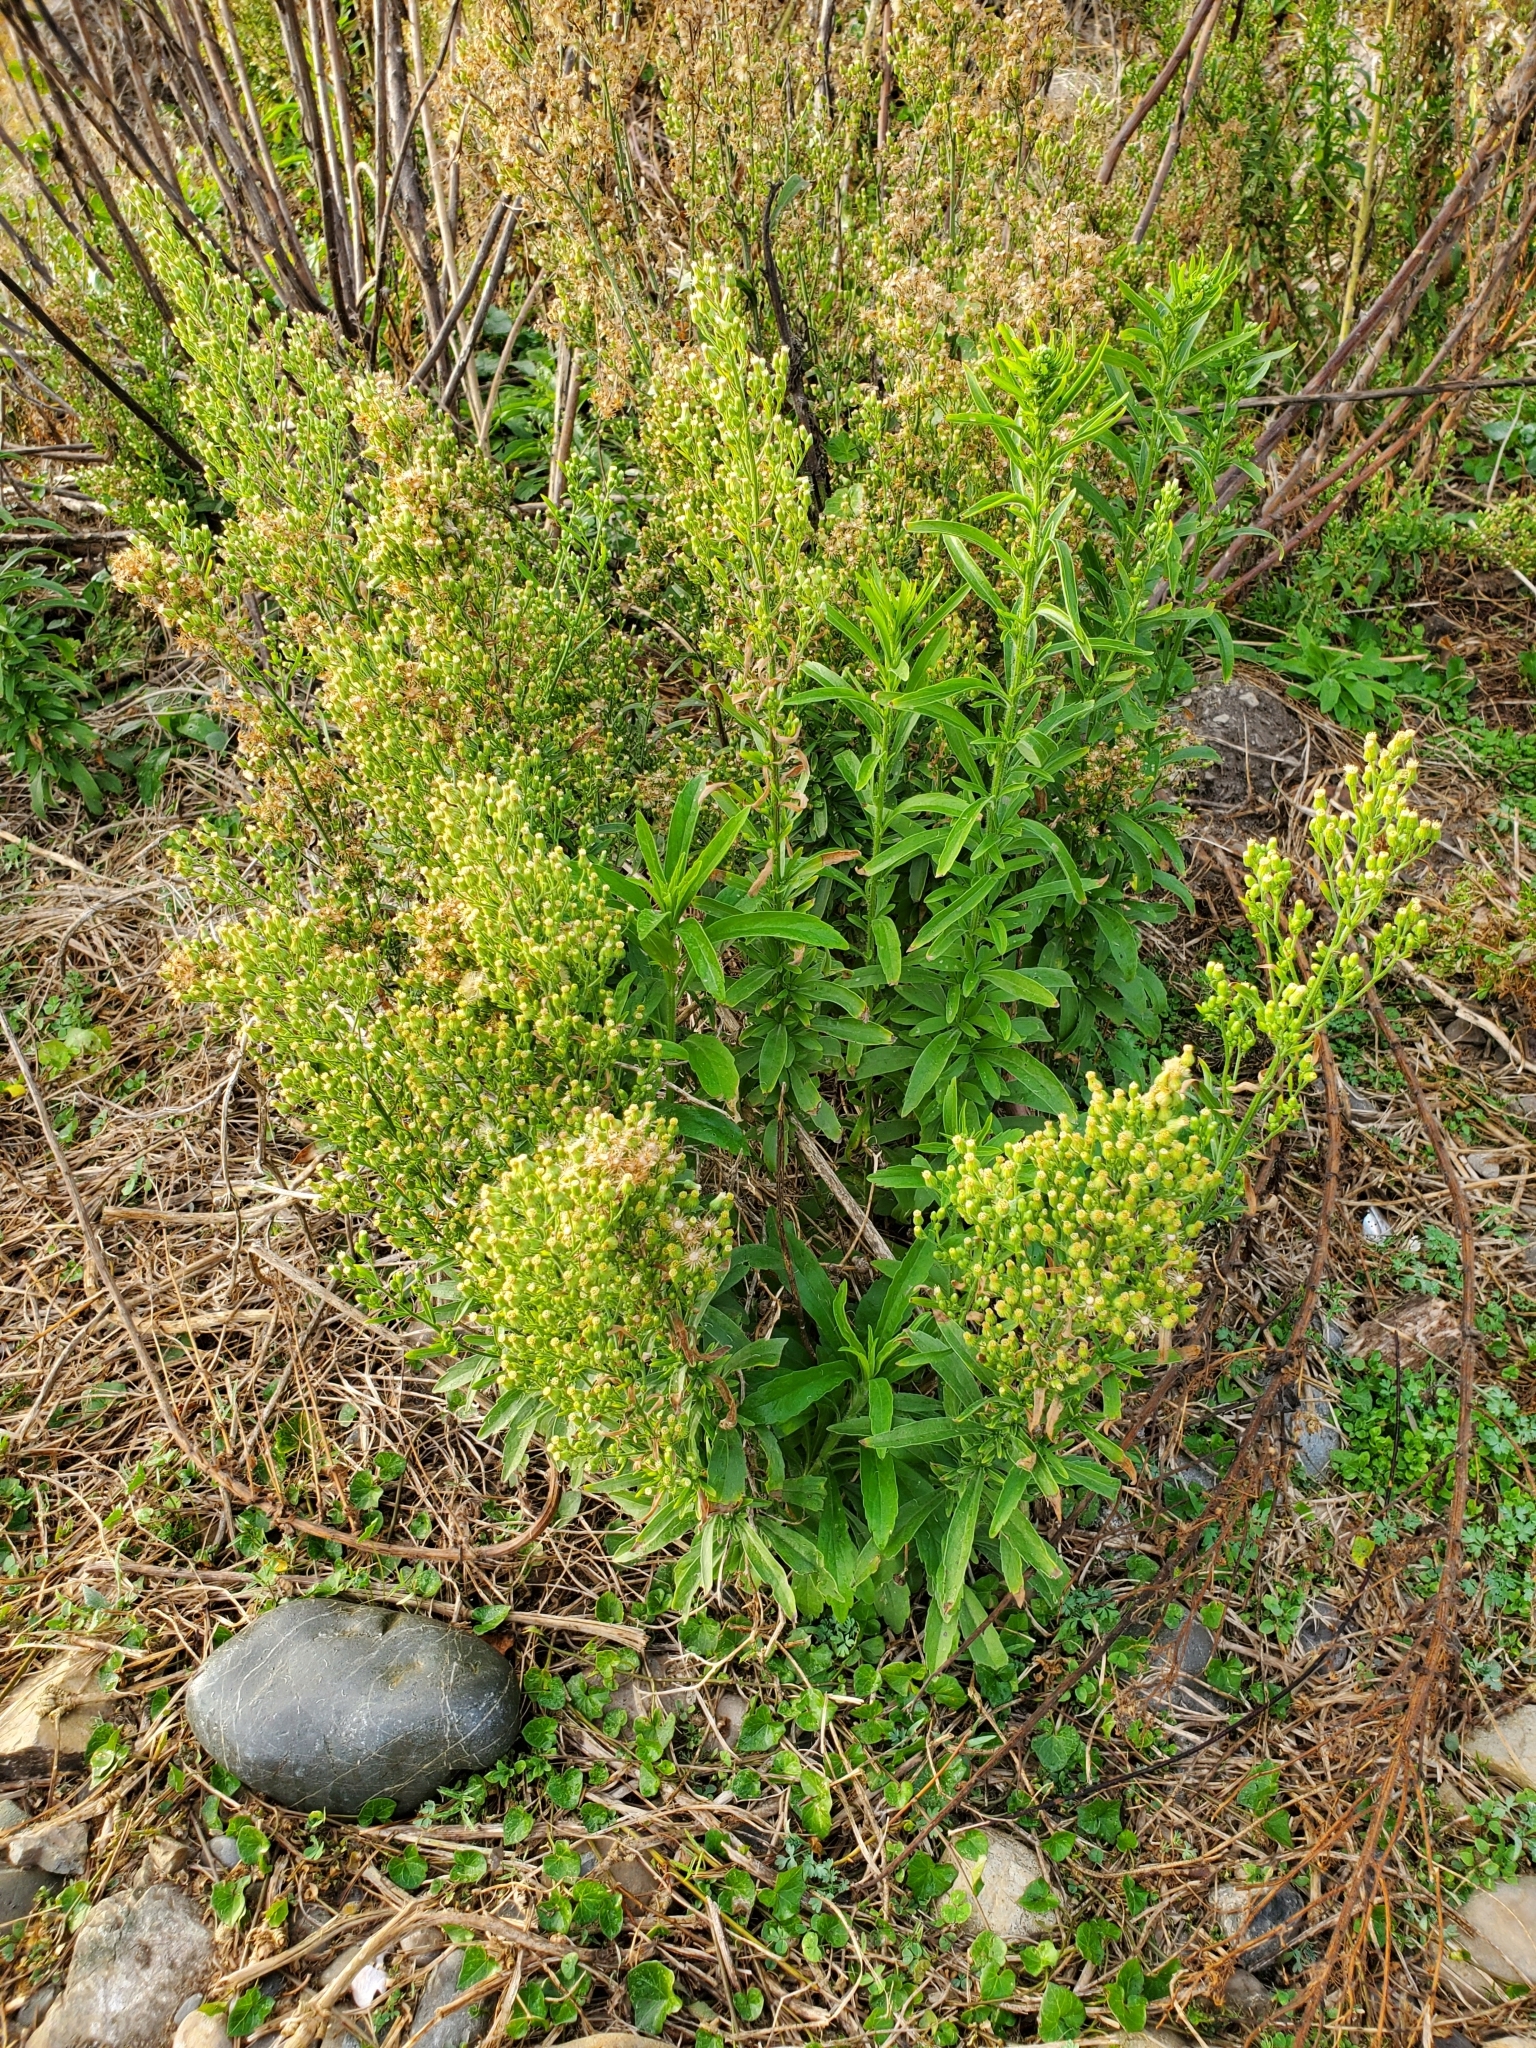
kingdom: Plantae
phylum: Tracheophyta
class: Magnoliopsida
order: Asterales
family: Asteraceae
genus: Erigeron
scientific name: Erigeron sumatrensis
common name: Daisy
